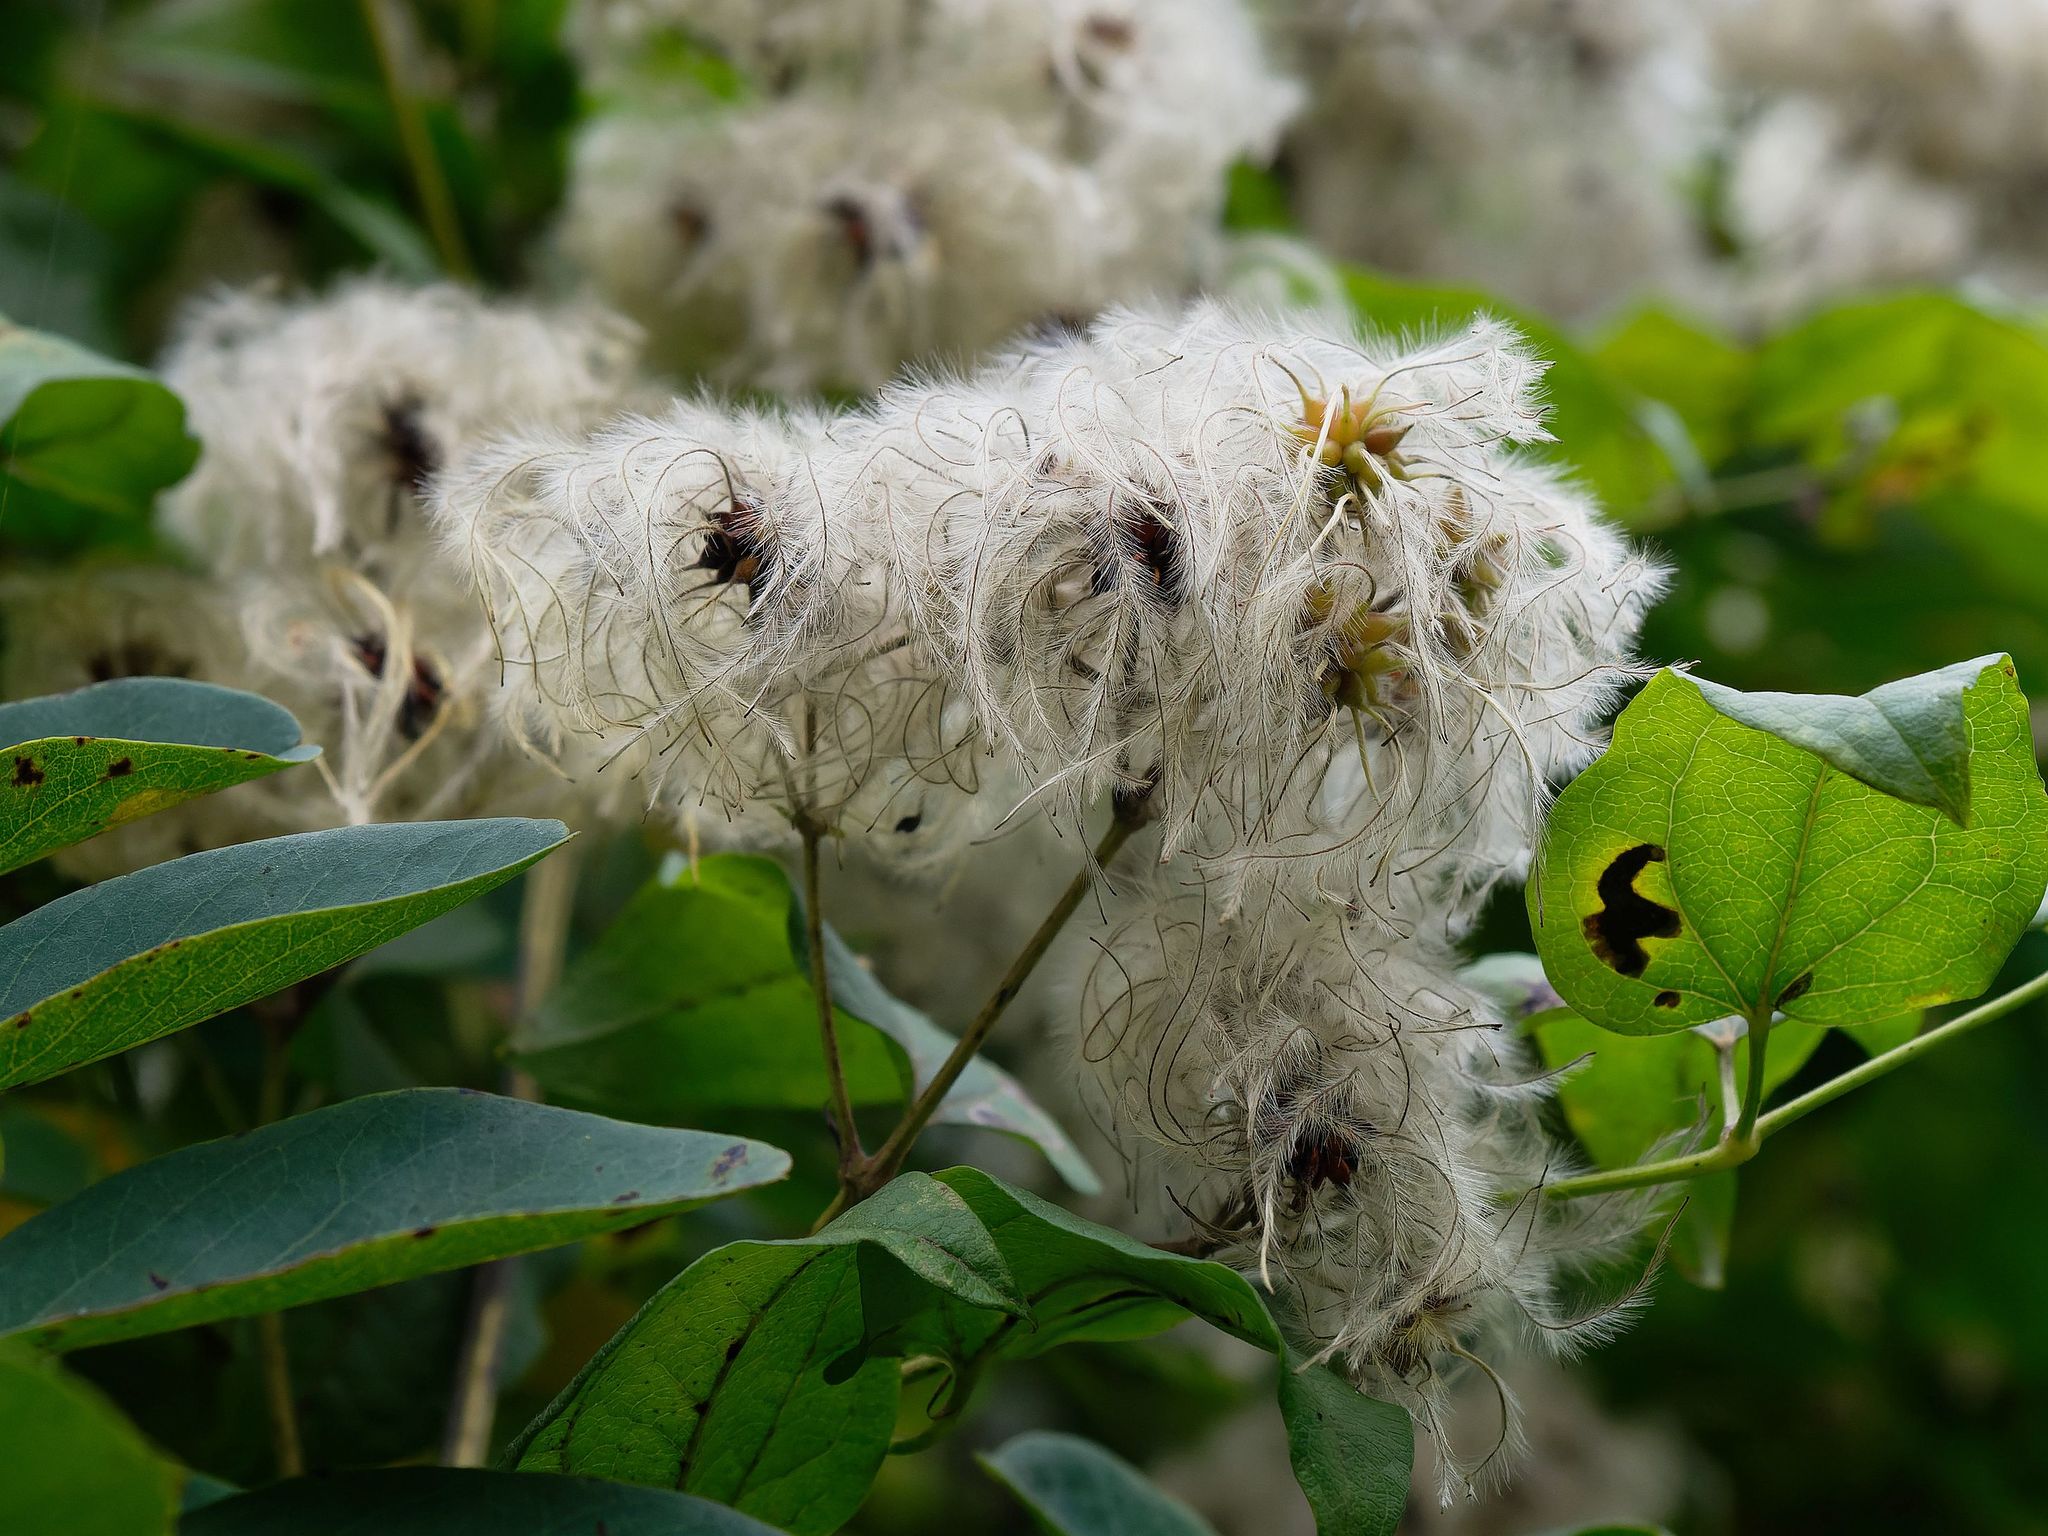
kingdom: Plantae
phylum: Tracheophyta
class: Magnoliopsida
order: Ranunculales
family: Ranunculaceae
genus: Clematis
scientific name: Clematis vitalba
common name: Evergreen clematis
